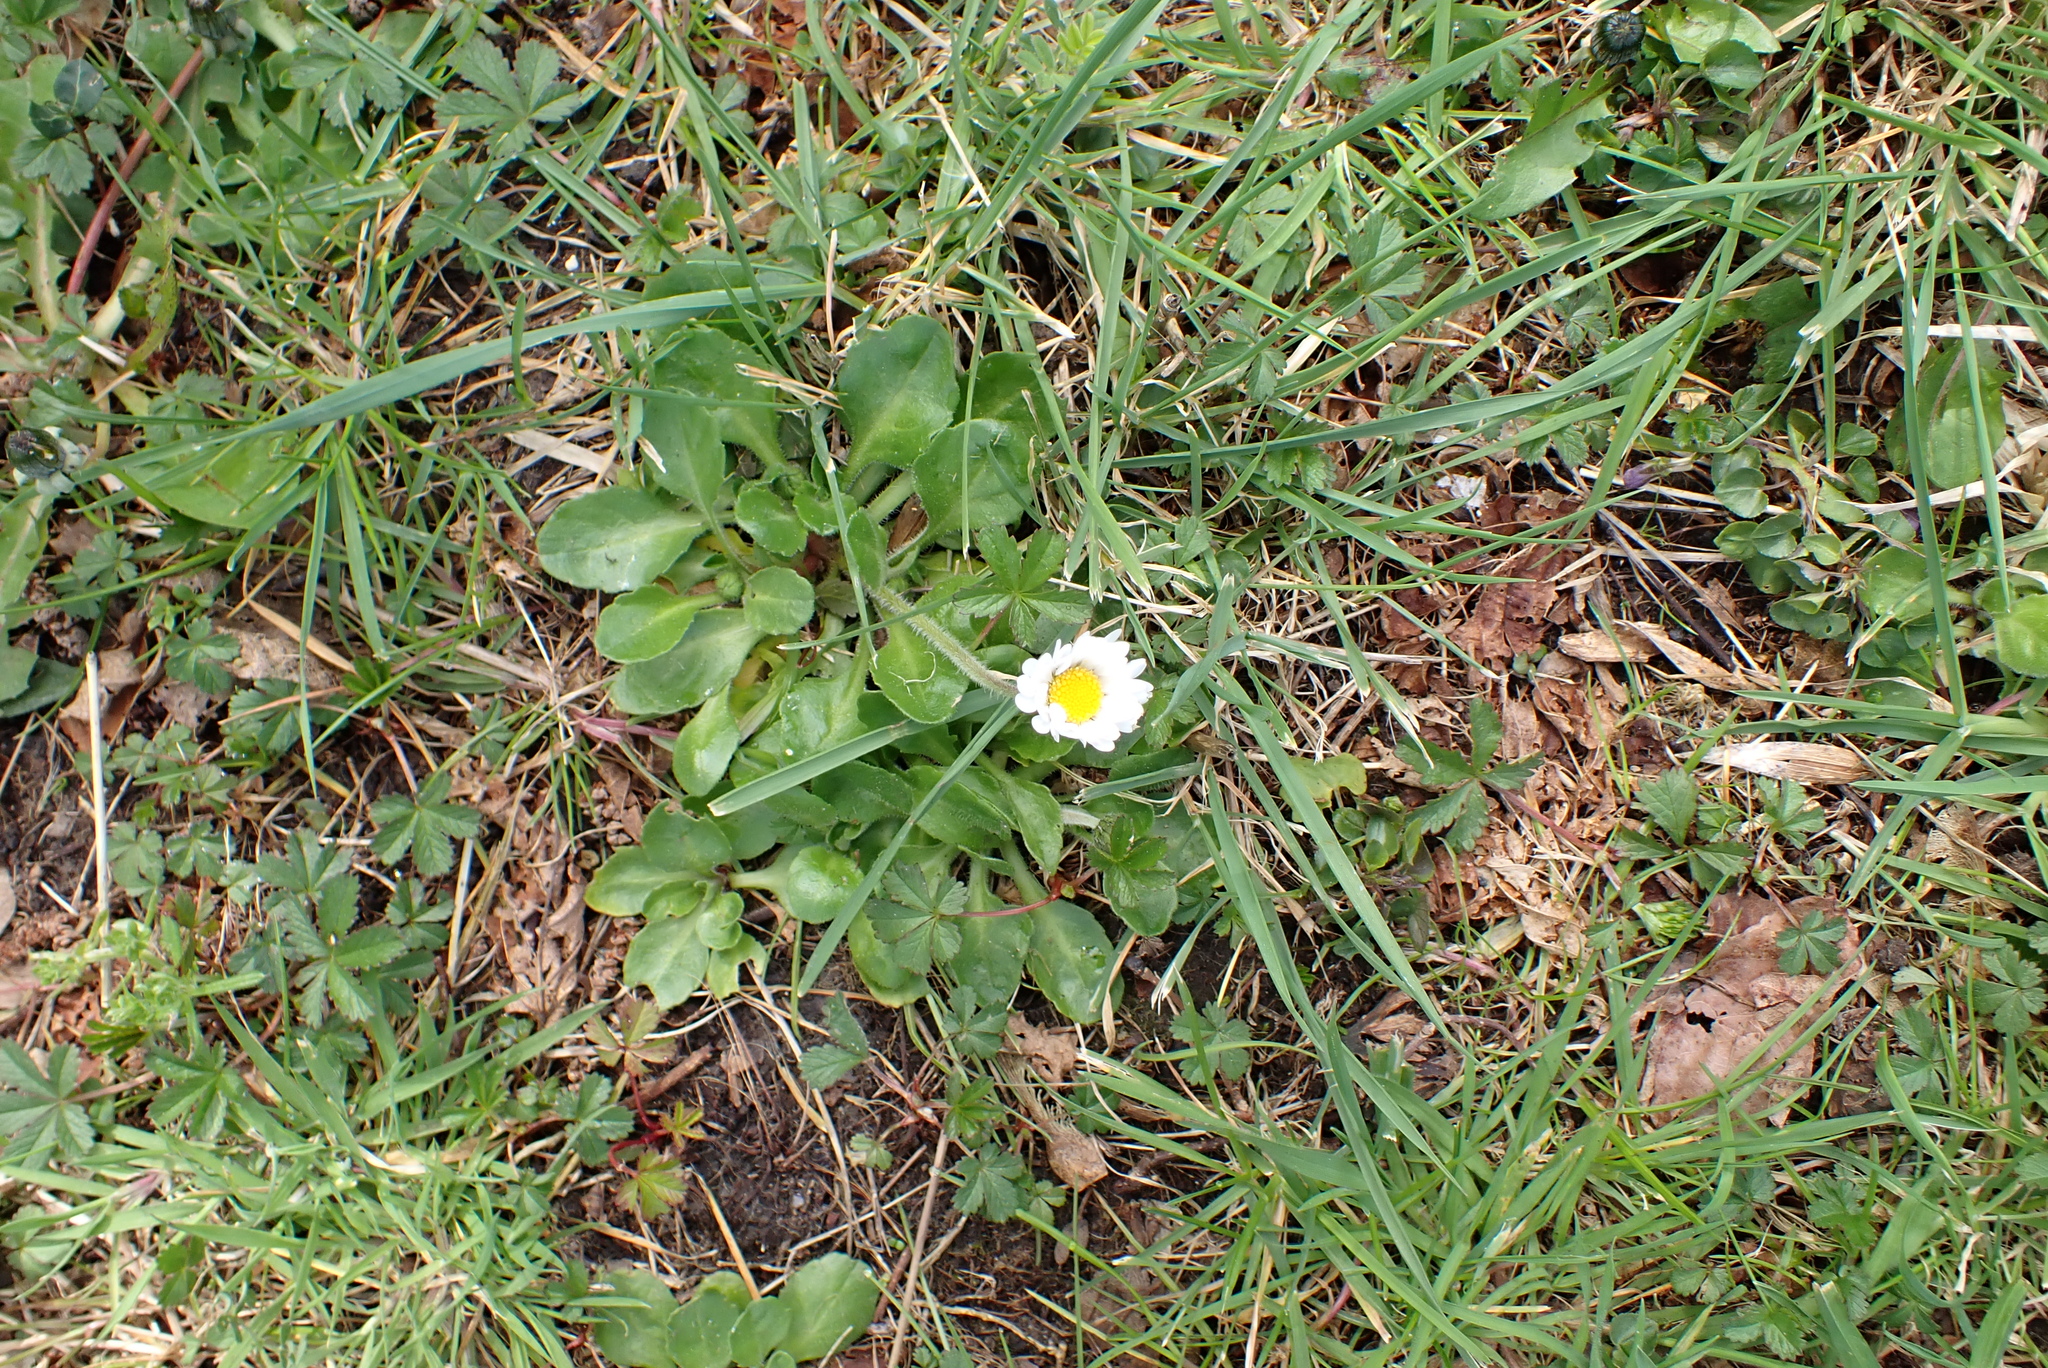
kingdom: Plantae
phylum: Tracheophyta
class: Magnoliopsida
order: Asterales
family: Asteraceae
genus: Bellis
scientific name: Bellis perennis
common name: Lawndaisy
